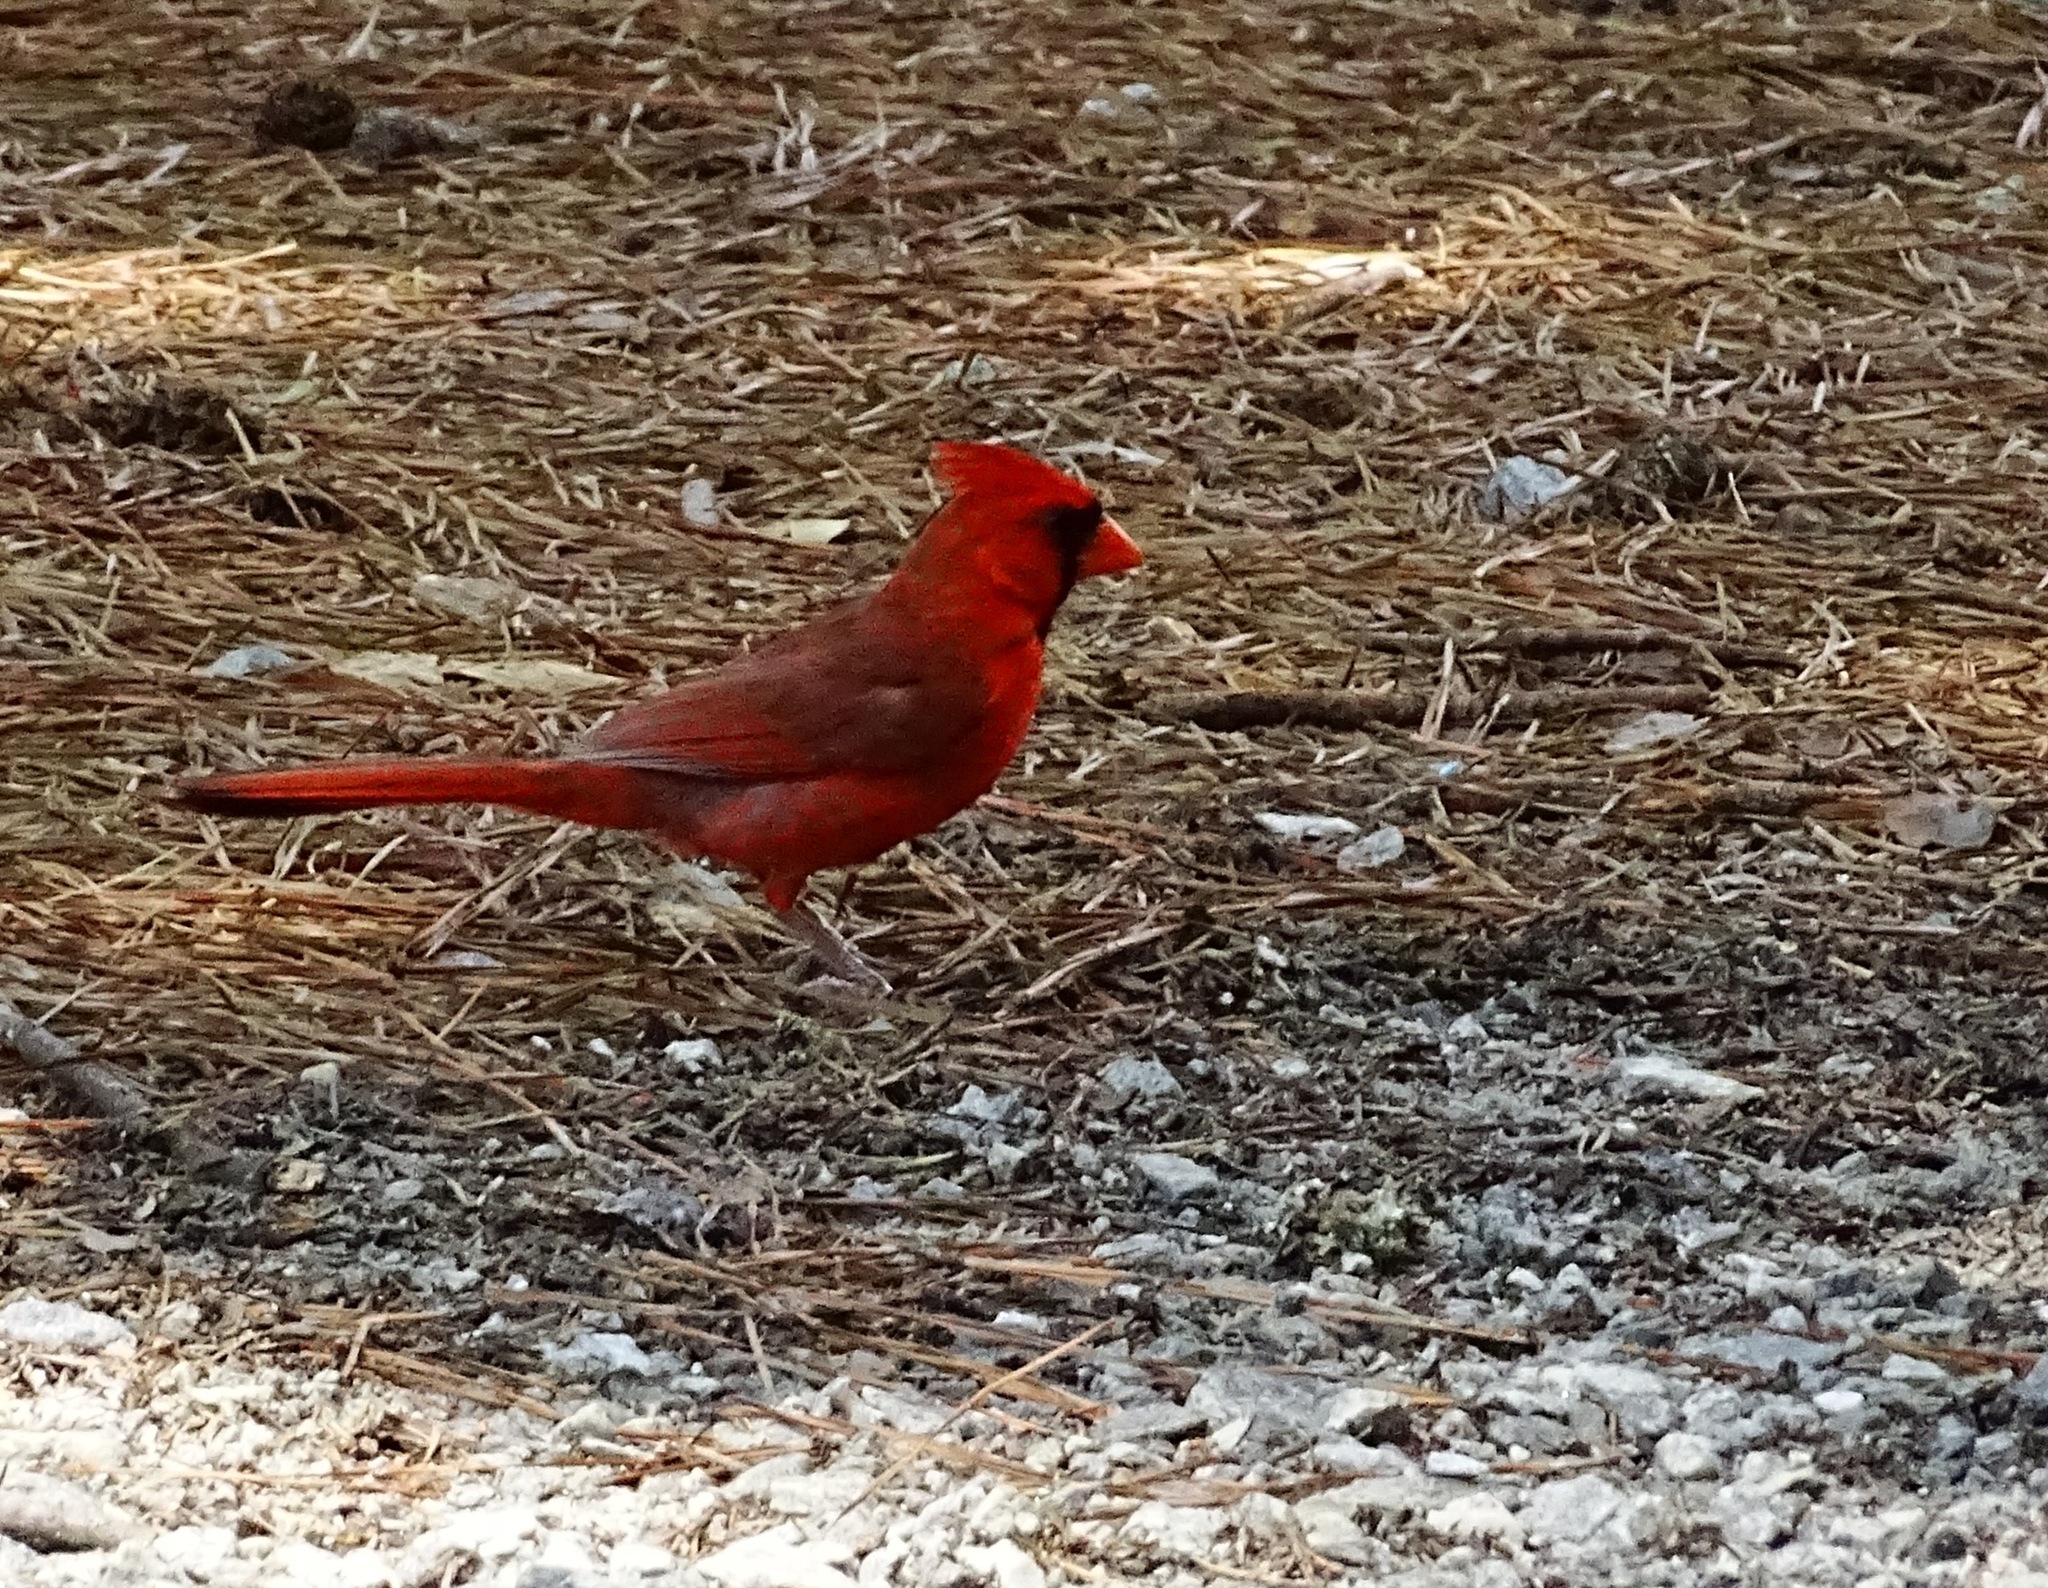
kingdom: Animalia
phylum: Chordata
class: Aves
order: Passeriformes
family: Cardinalidae
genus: Cardinalis
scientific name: Cardinalis cardinalis
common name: Northern cardinal
